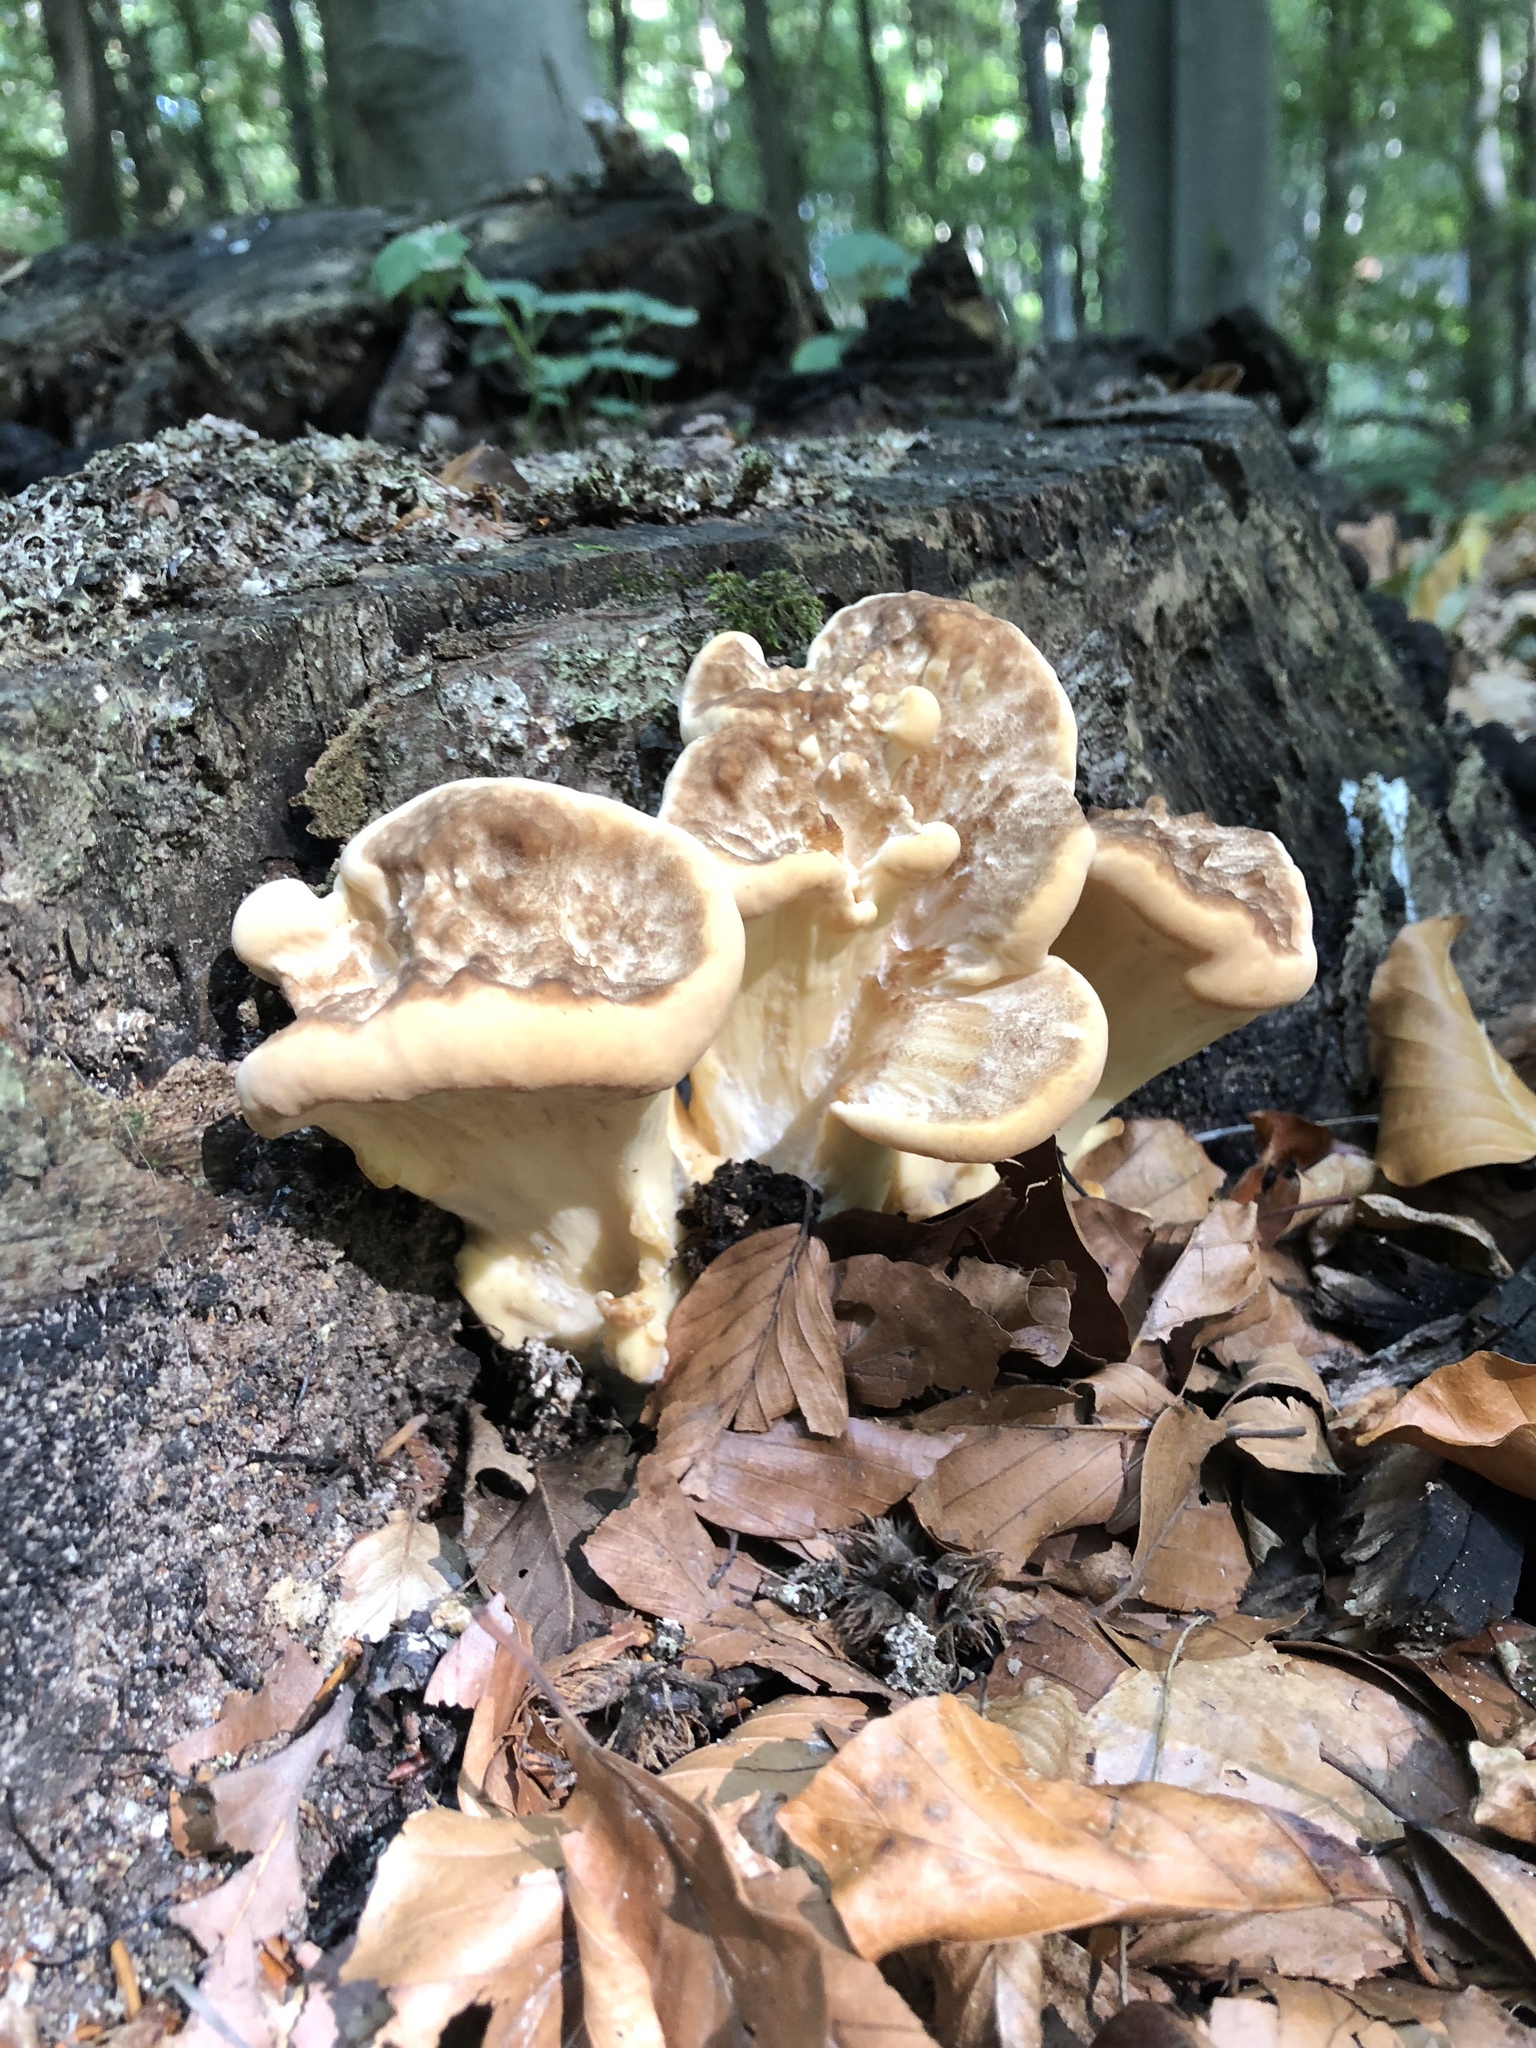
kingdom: Fungi
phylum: Basidiomycota
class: Agaricomycetes
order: Polyporales
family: Meripilaceae
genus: Meripilus
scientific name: Meripilus giganteus
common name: Giant polypore
